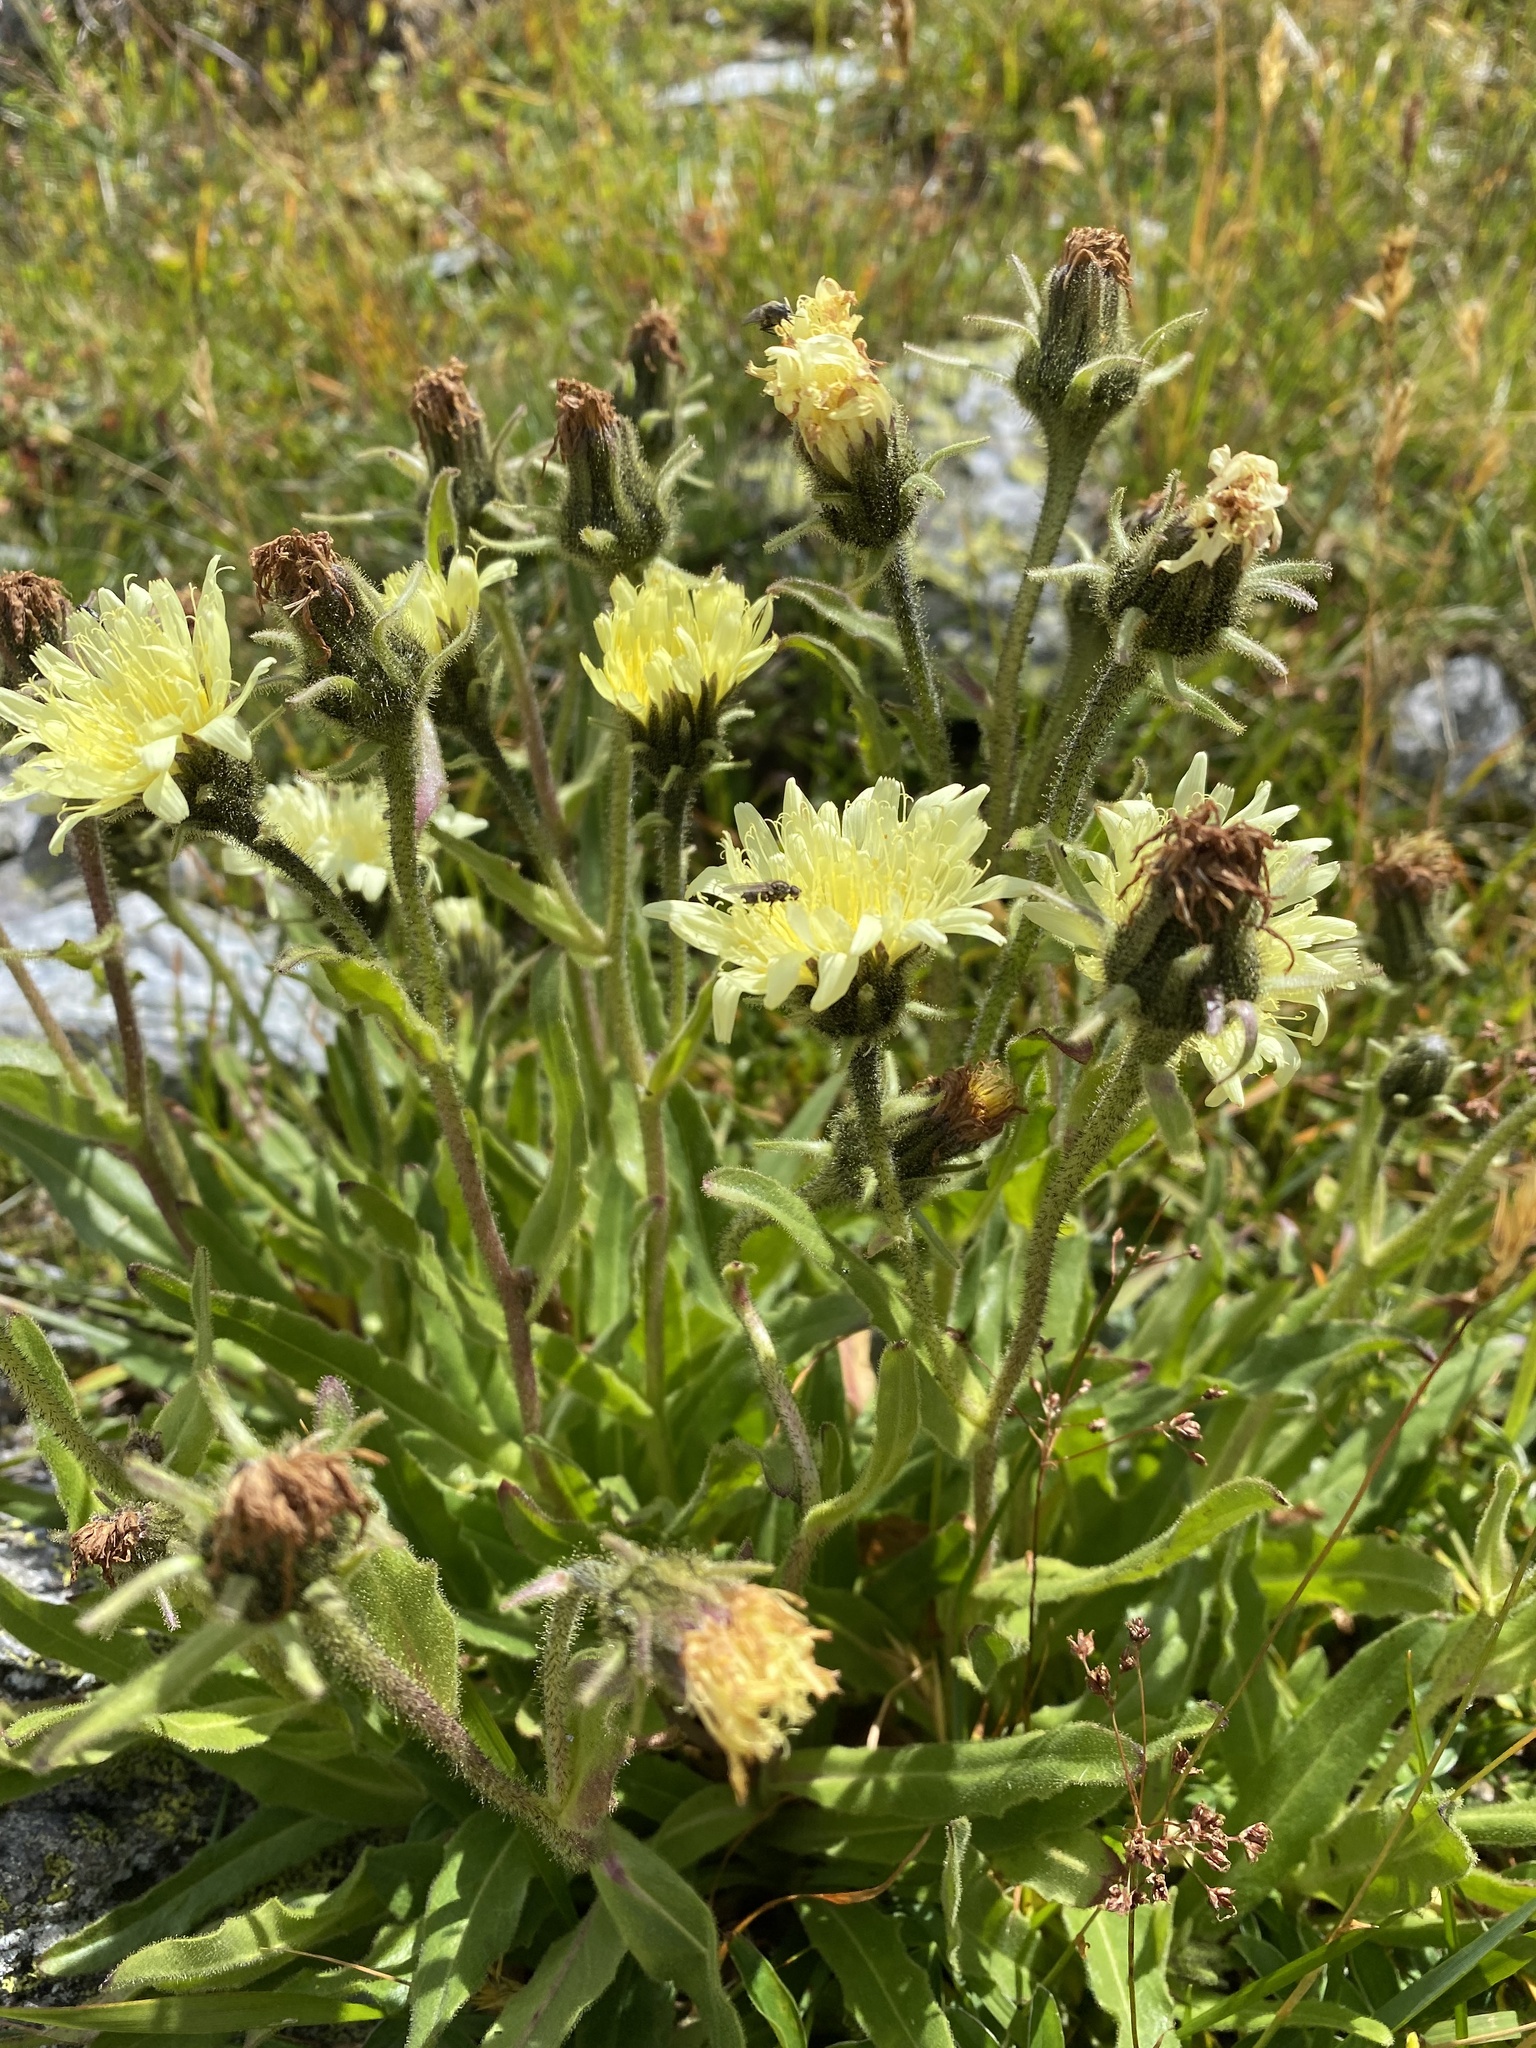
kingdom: Plantae
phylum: Tracheophyta
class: Magnoliopsida
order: Asterales
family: Asteraceae
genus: Schlagintweitia
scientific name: Schlagintweitia intybacea
